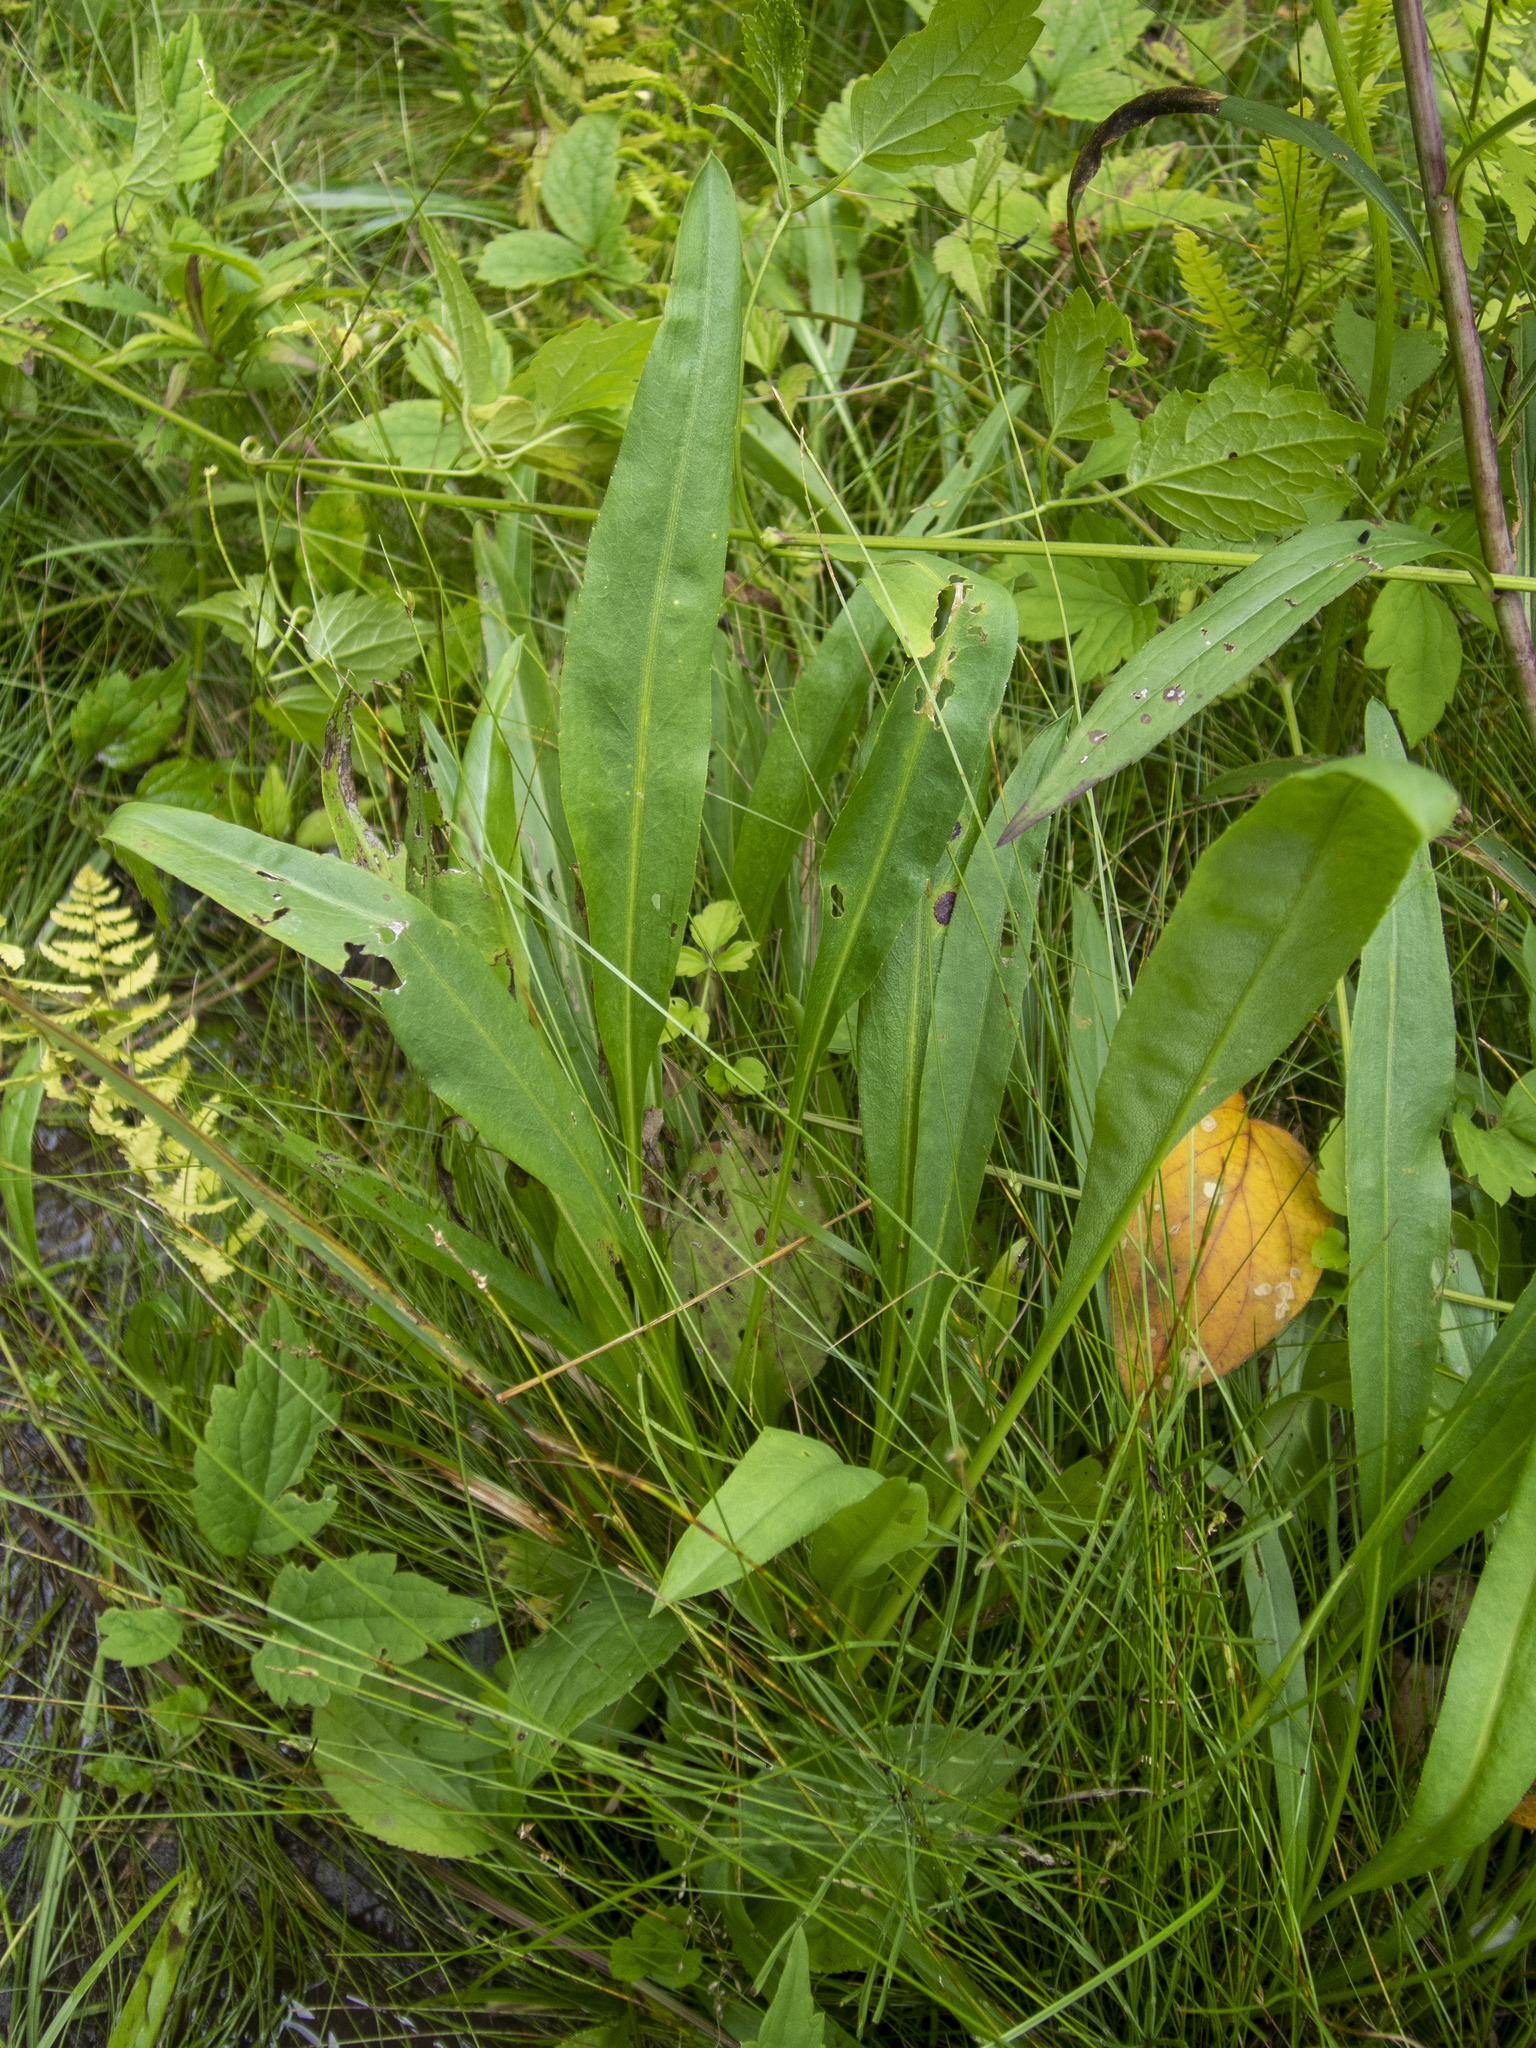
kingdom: Plantae
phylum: Tracheophyta
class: Magnoliopsida
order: Asterales
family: Asteraceae
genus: Solidago
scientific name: Solidago ohioensis
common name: Ohio goldenrod
